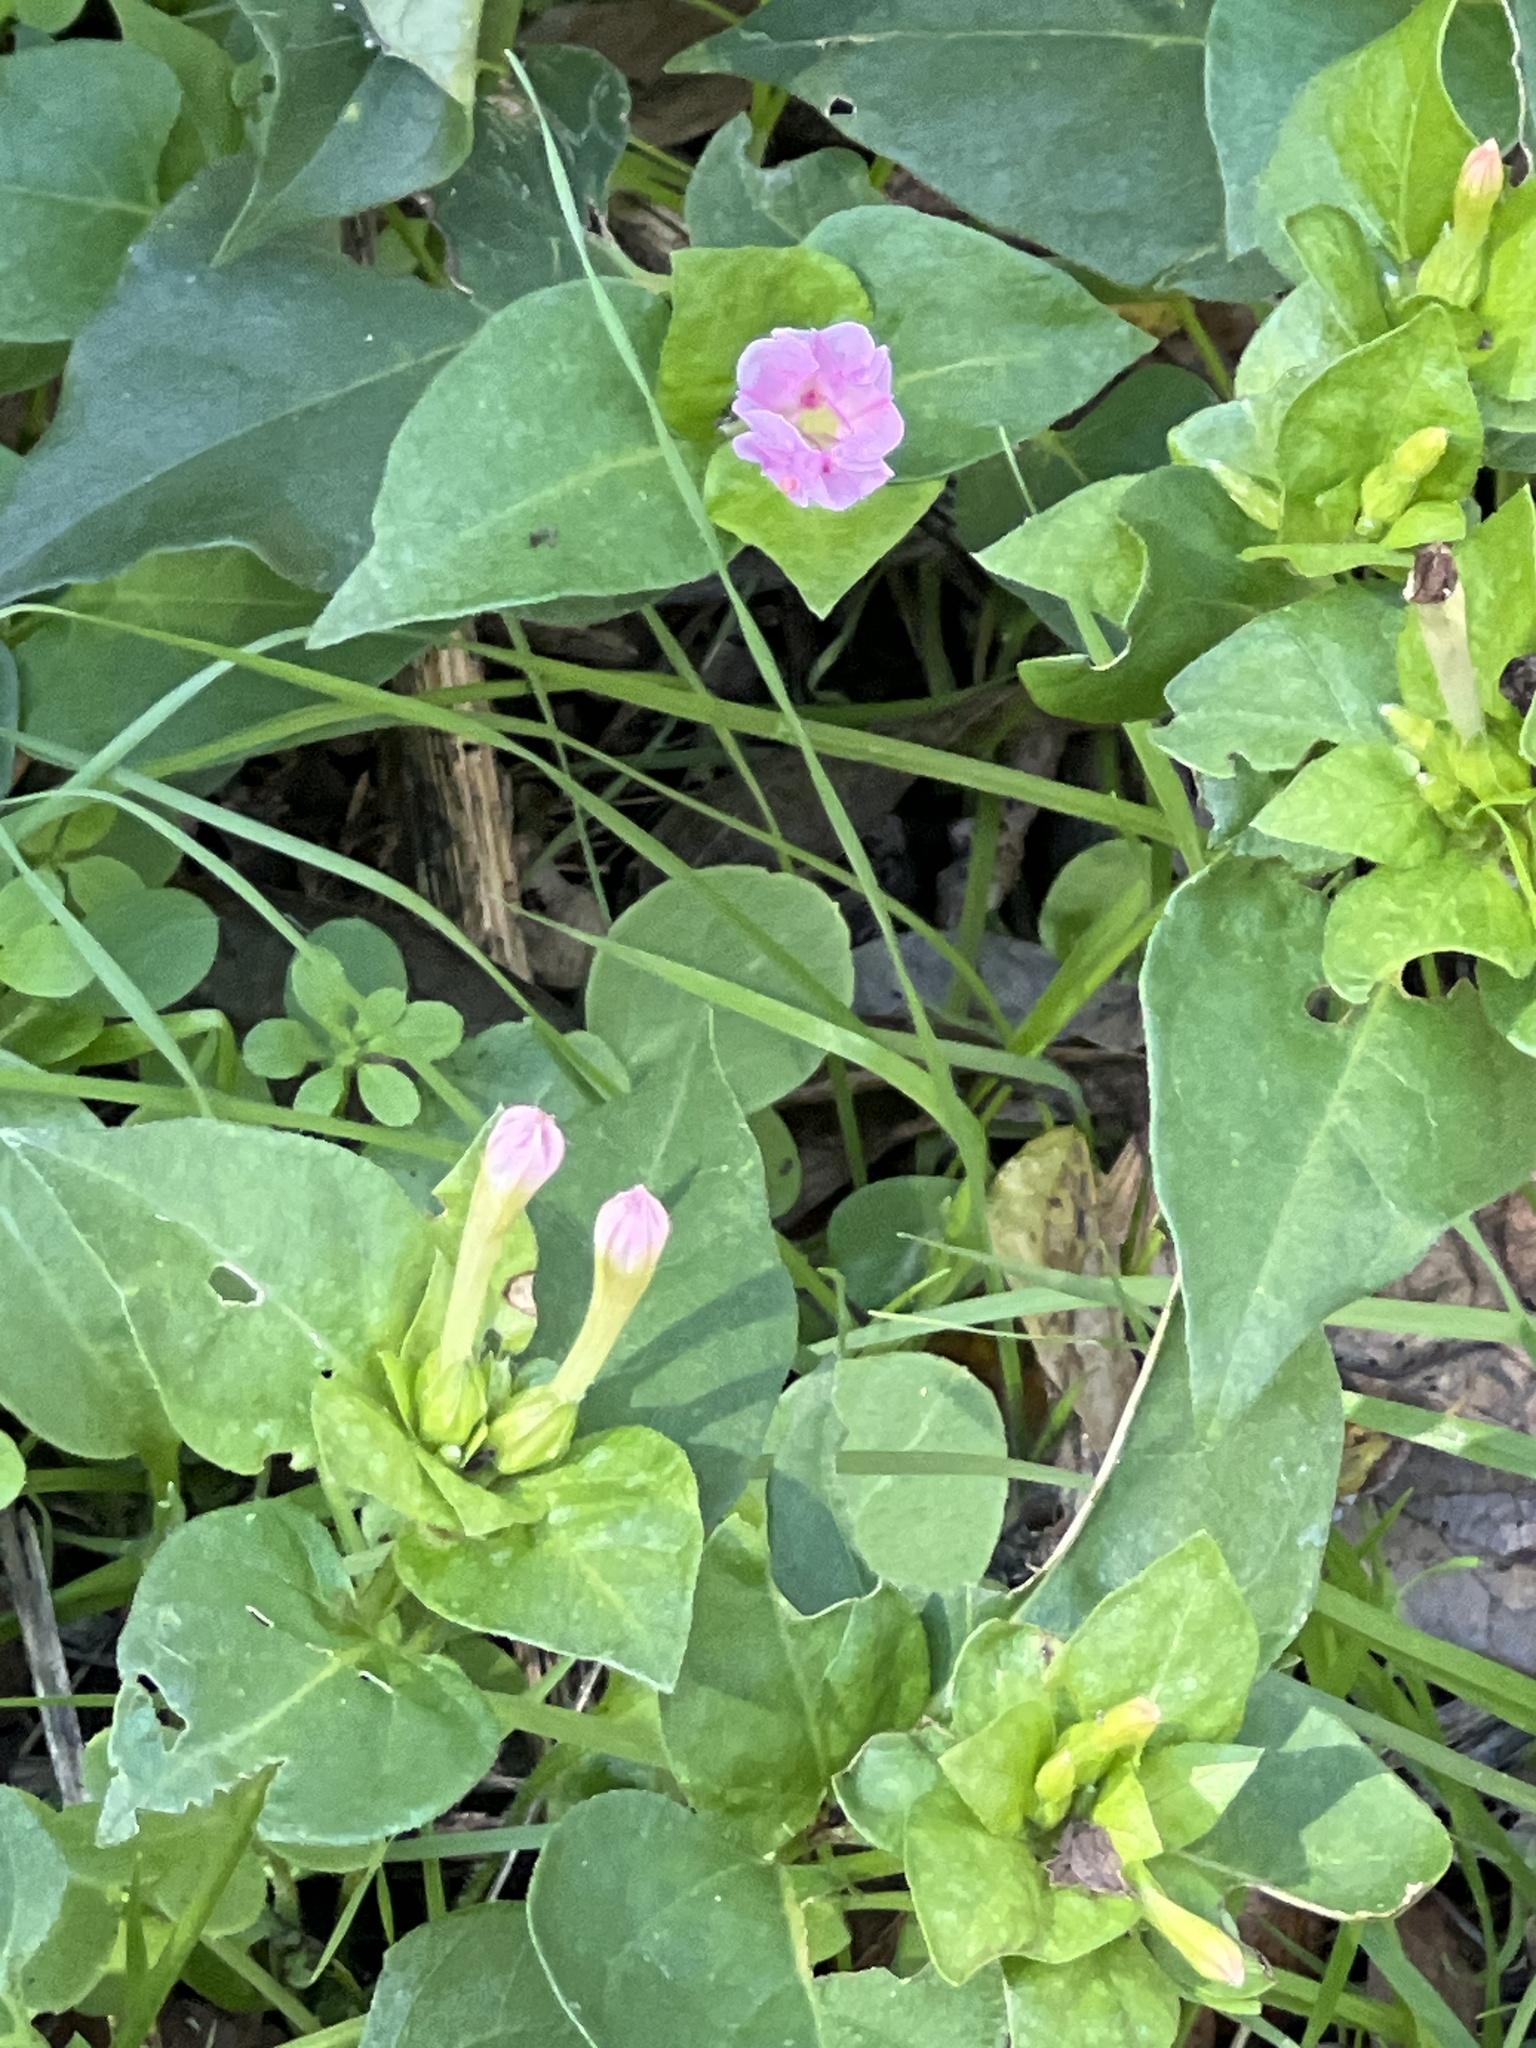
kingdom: Plantae
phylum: Tracheophyta
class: Magnoliopsida
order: Caryophyllales
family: Nyctaginaceae
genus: Mirabilis
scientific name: Mirabilis jalapa
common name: Marvel-of-peru
